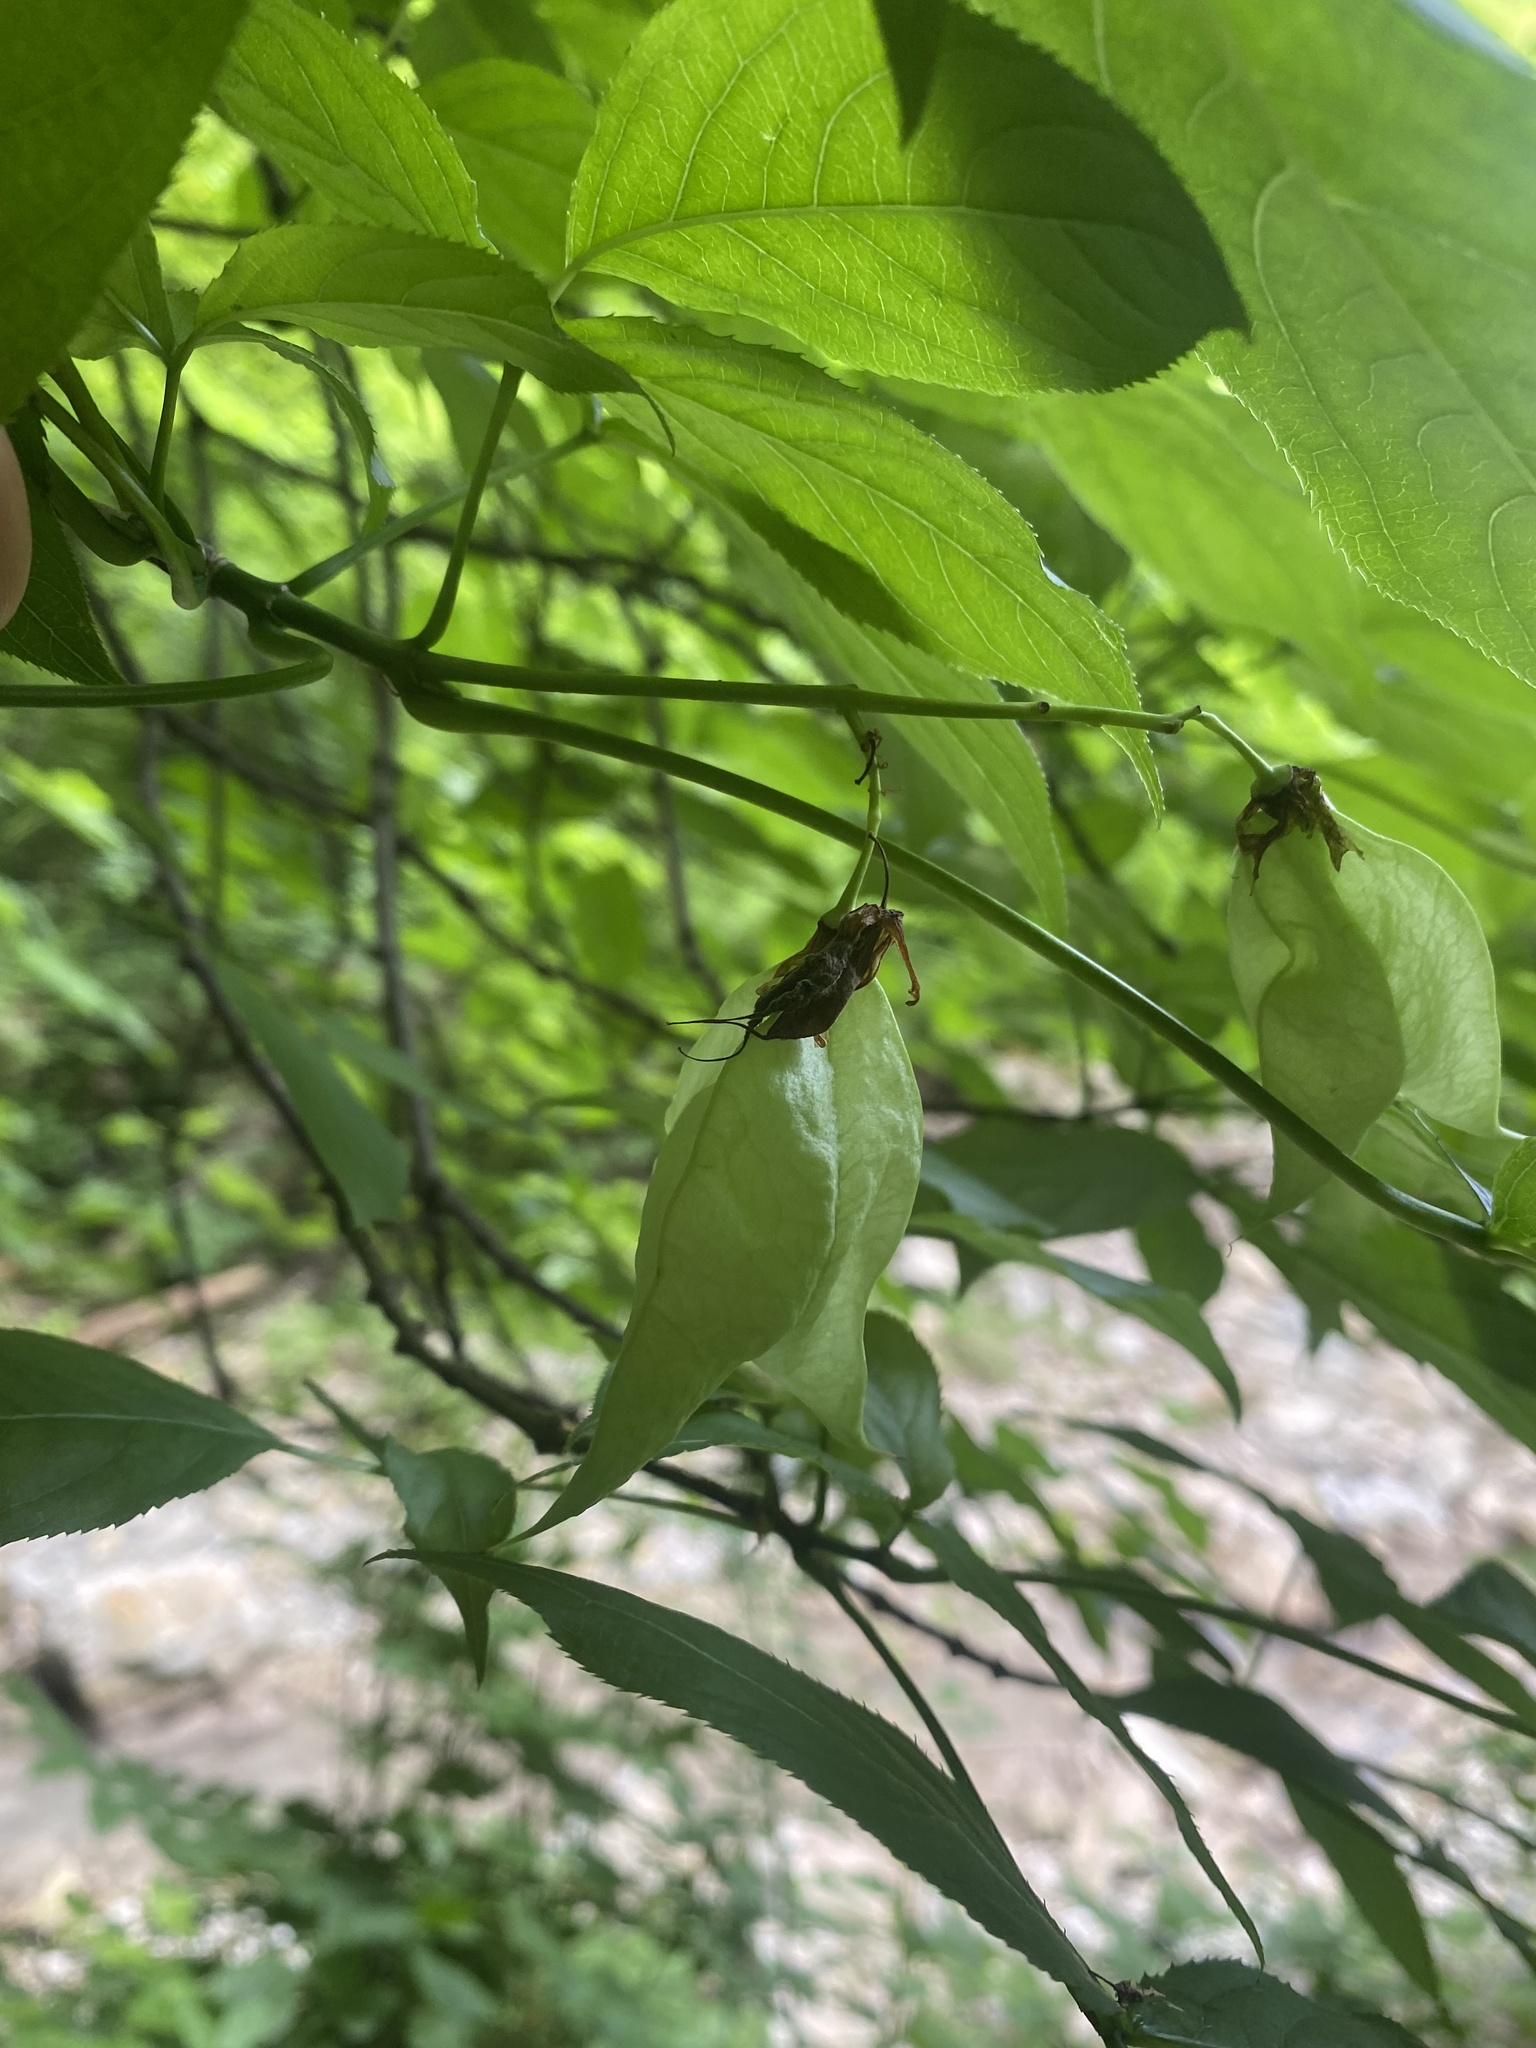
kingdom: Plantae
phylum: Tracheophyta
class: Magnoliopsida
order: Crossosomatales
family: Staphyleaceae
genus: Staphylea
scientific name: Staphylea colchica
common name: Caucasian bladdernut
